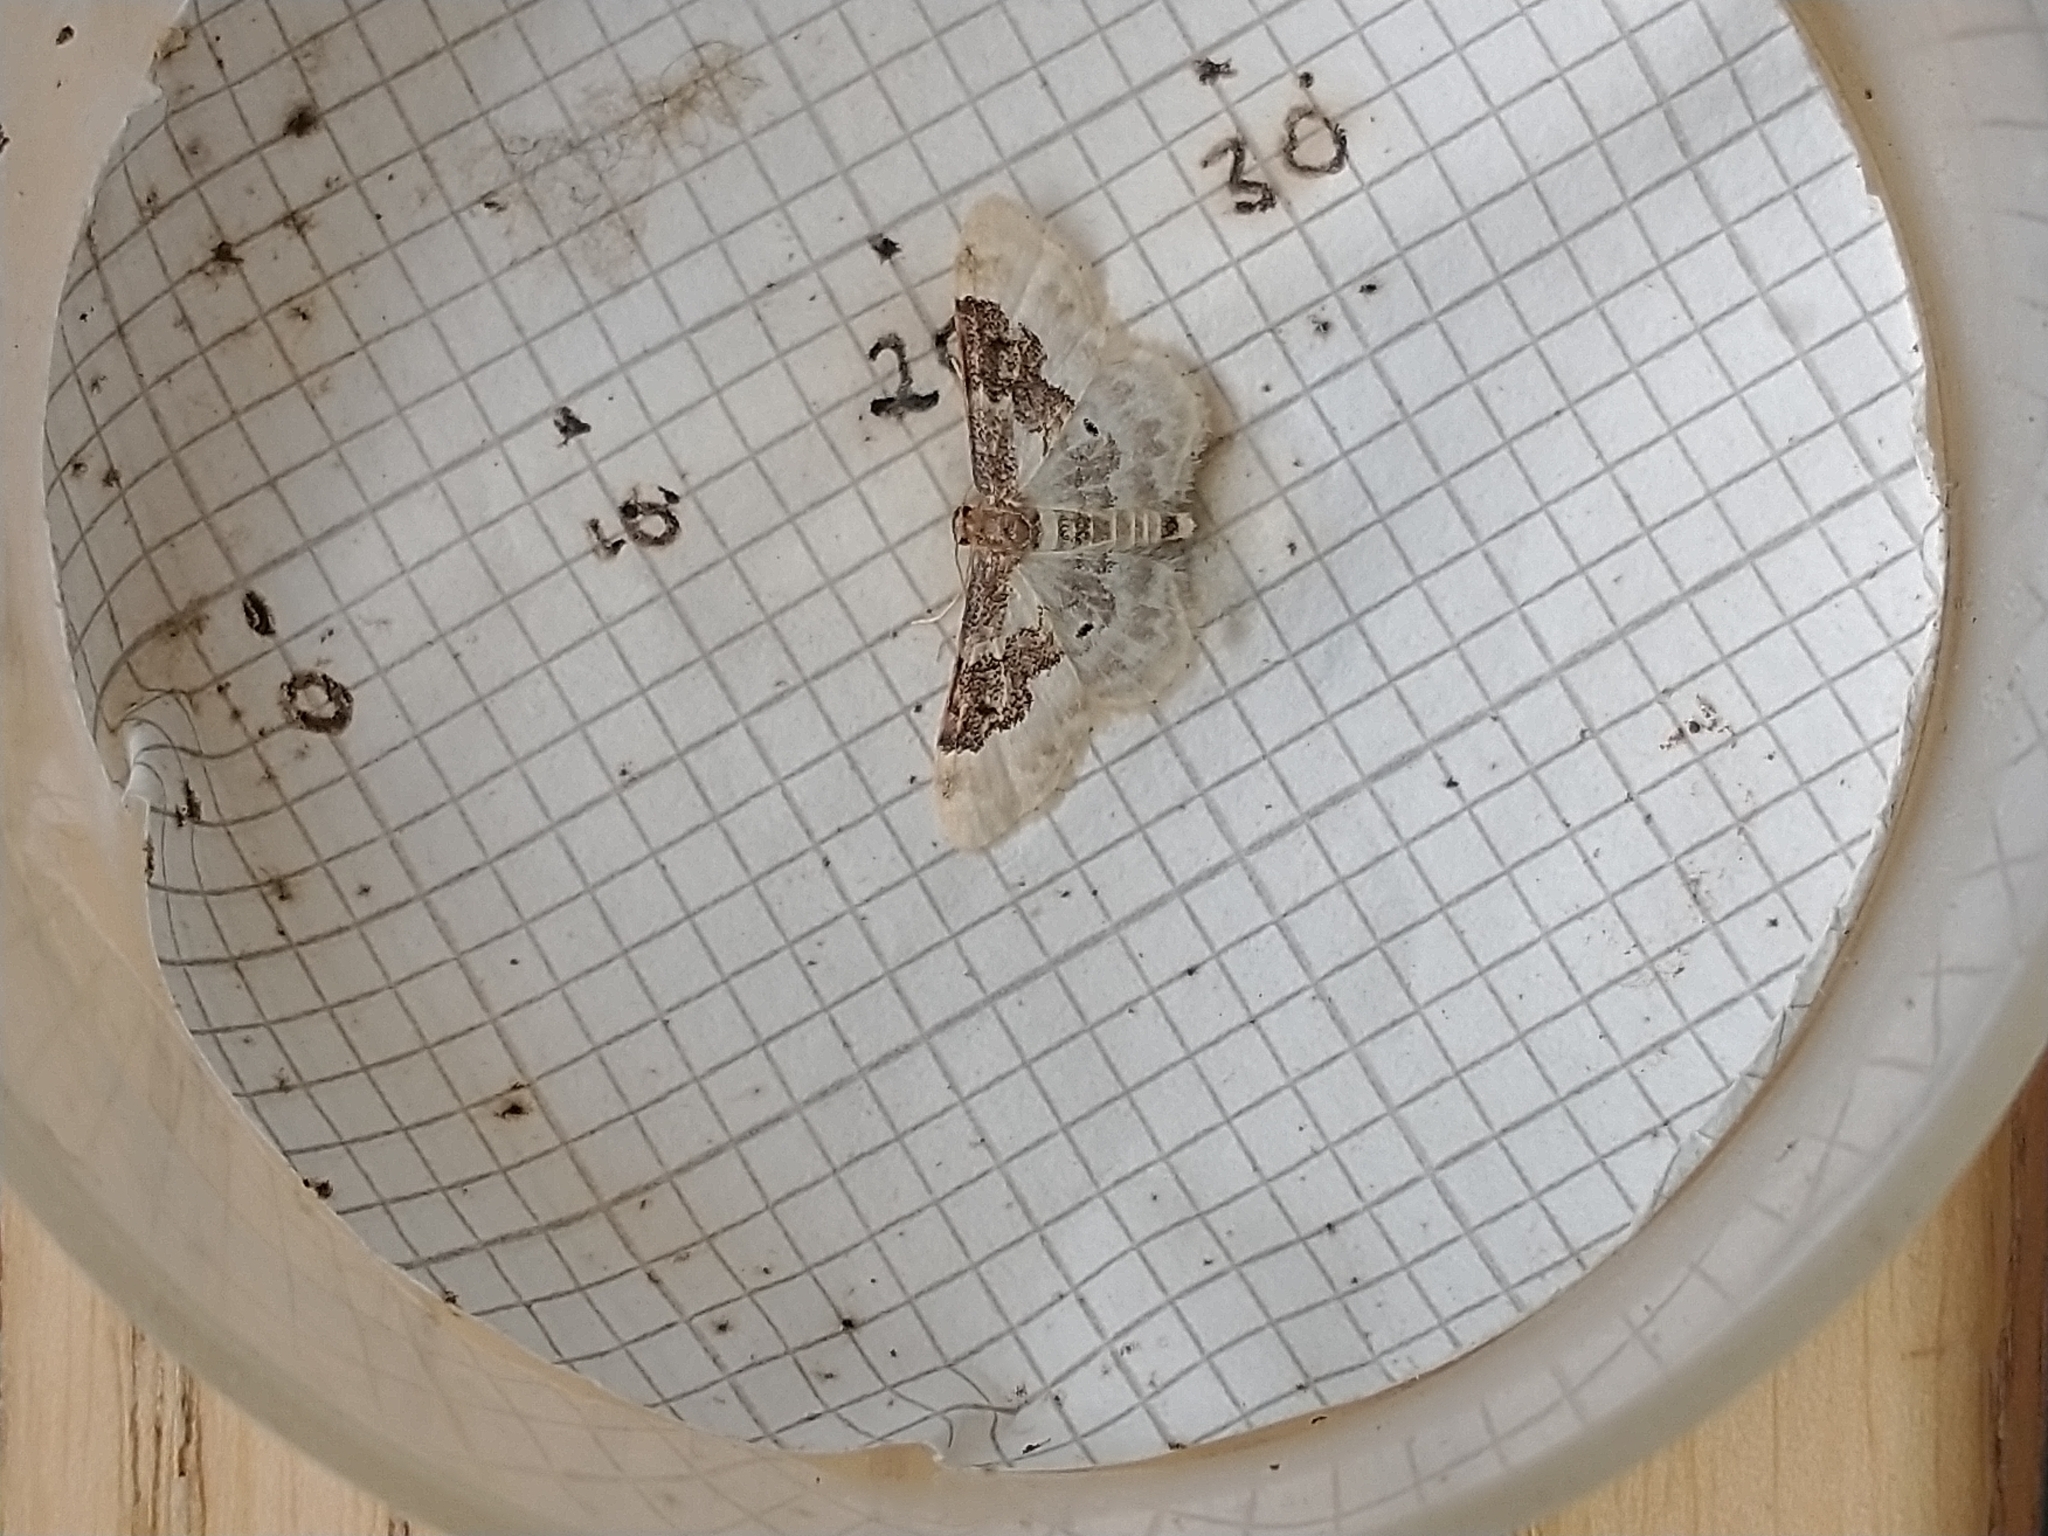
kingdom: Animalia
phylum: Arthropoda
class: Insecta
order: Lepidoptera
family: Geometridae
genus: Idaea
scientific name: Idaea rusticata
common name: Least carpet
